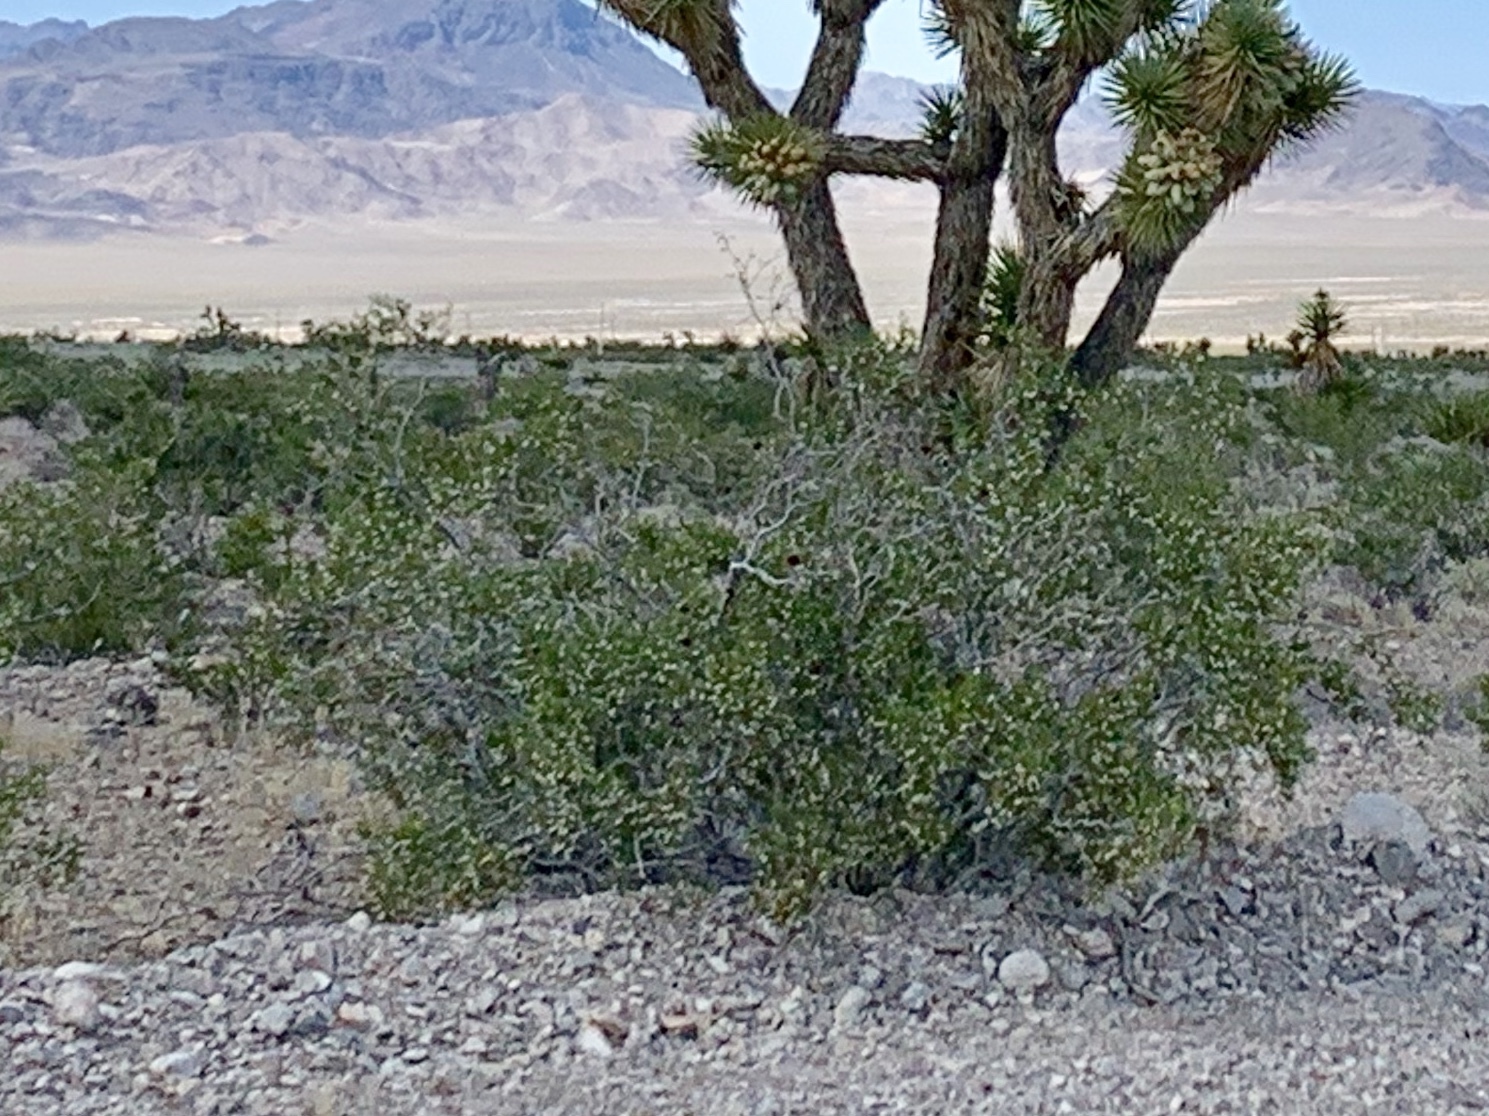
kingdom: Plantae
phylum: Tracheophyta
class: Magnoliopsida
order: Zygophyllales
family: Zygophyllaceae
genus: Larrea
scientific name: Larrea tridentata
